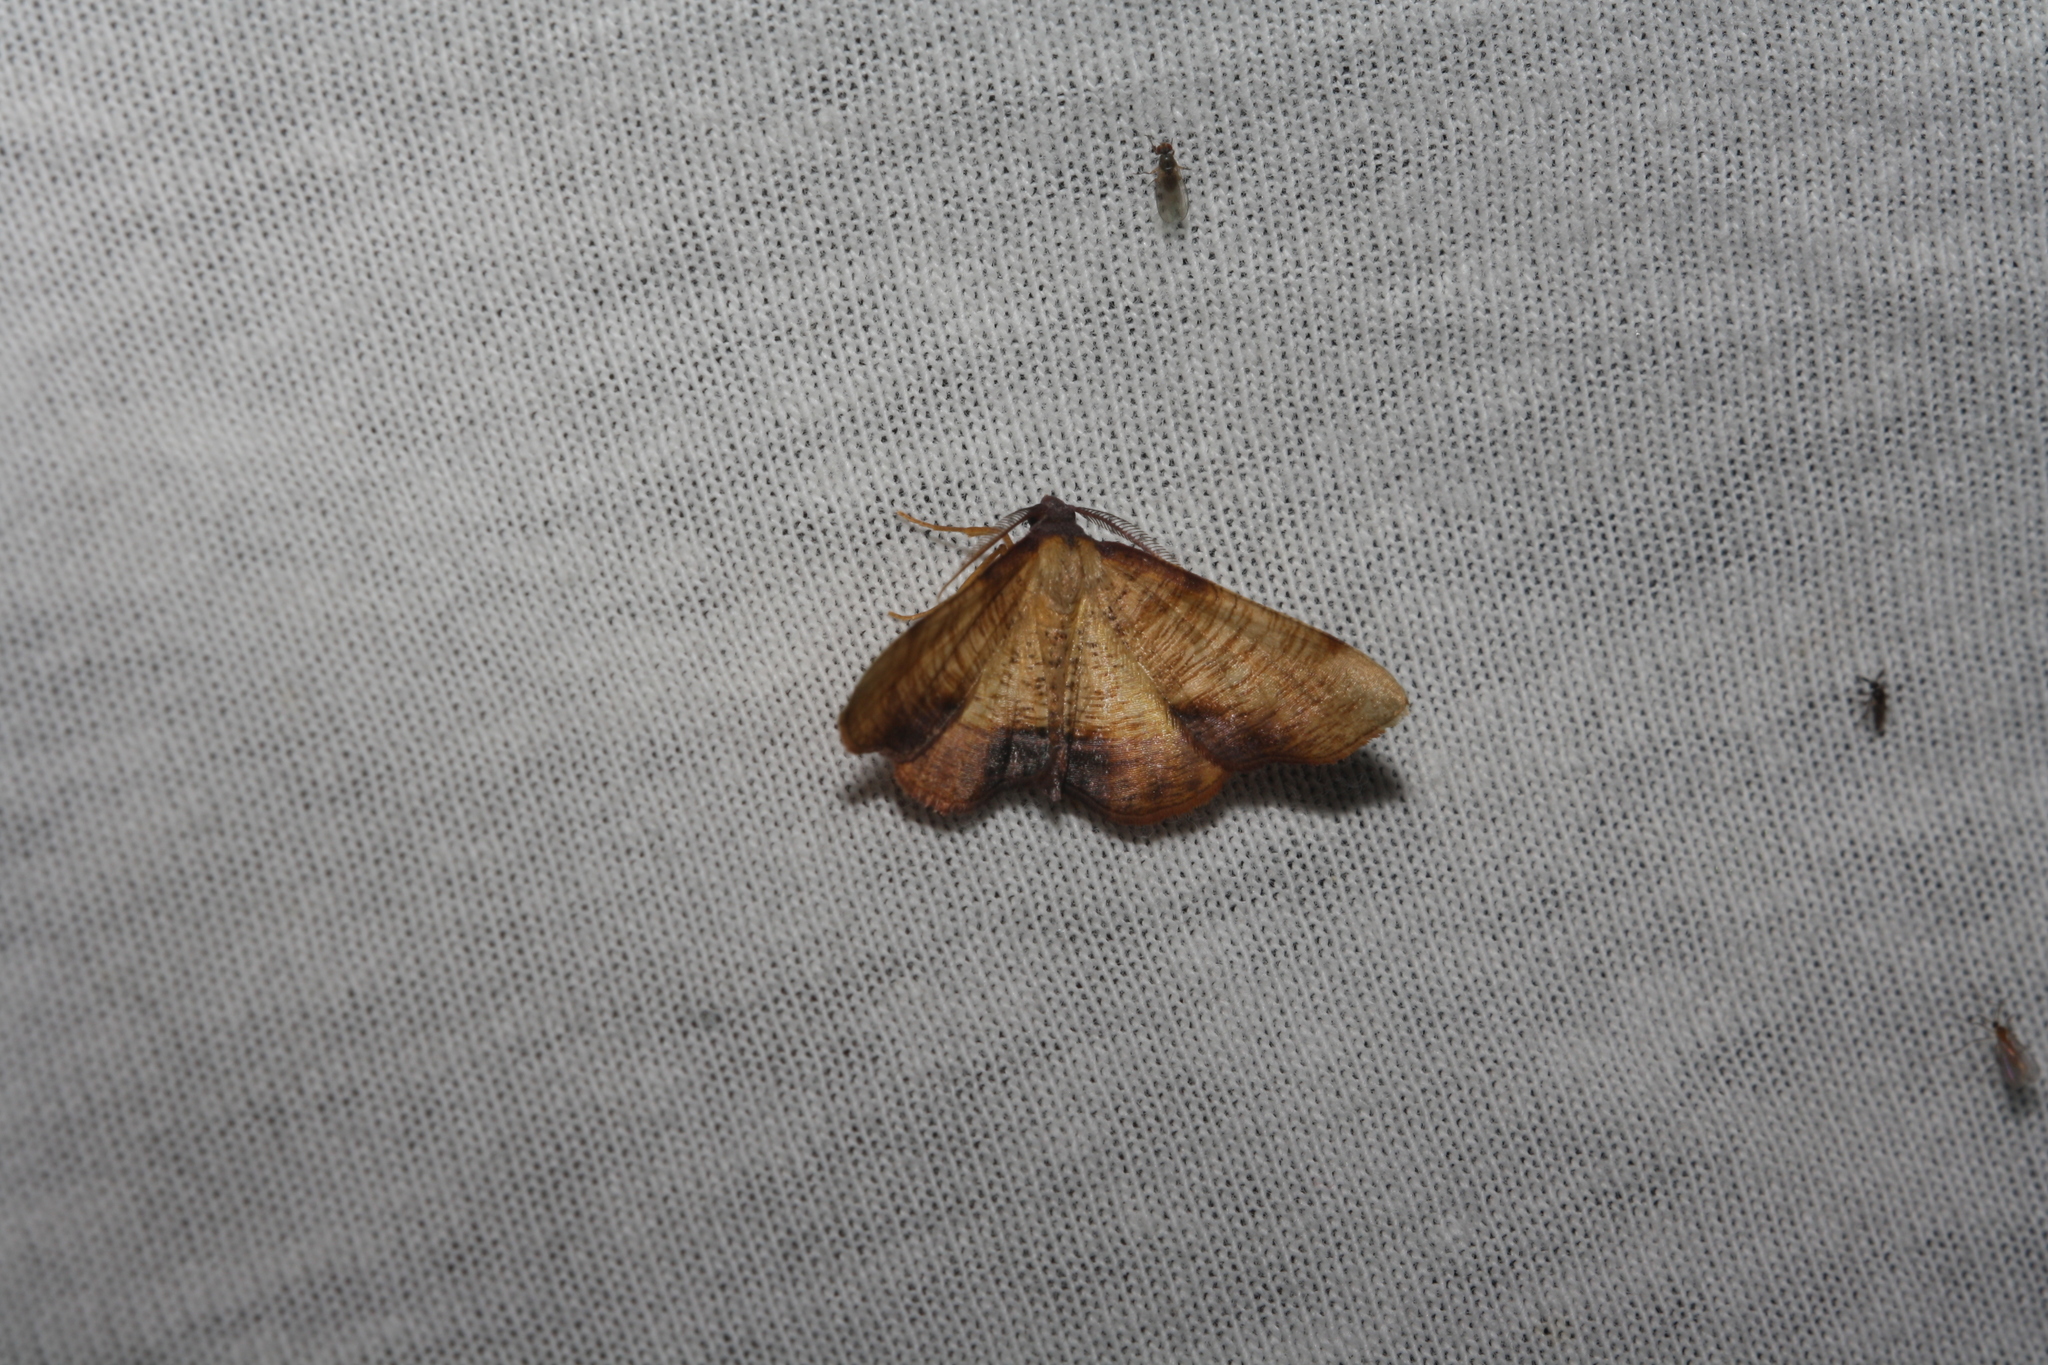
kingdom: Animalia
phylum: Arthropoda
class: Insecta
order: Lepidoptera
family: Geometridae
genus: Plagodis
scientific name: Plagodis dolabraria
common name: Scorched wing
